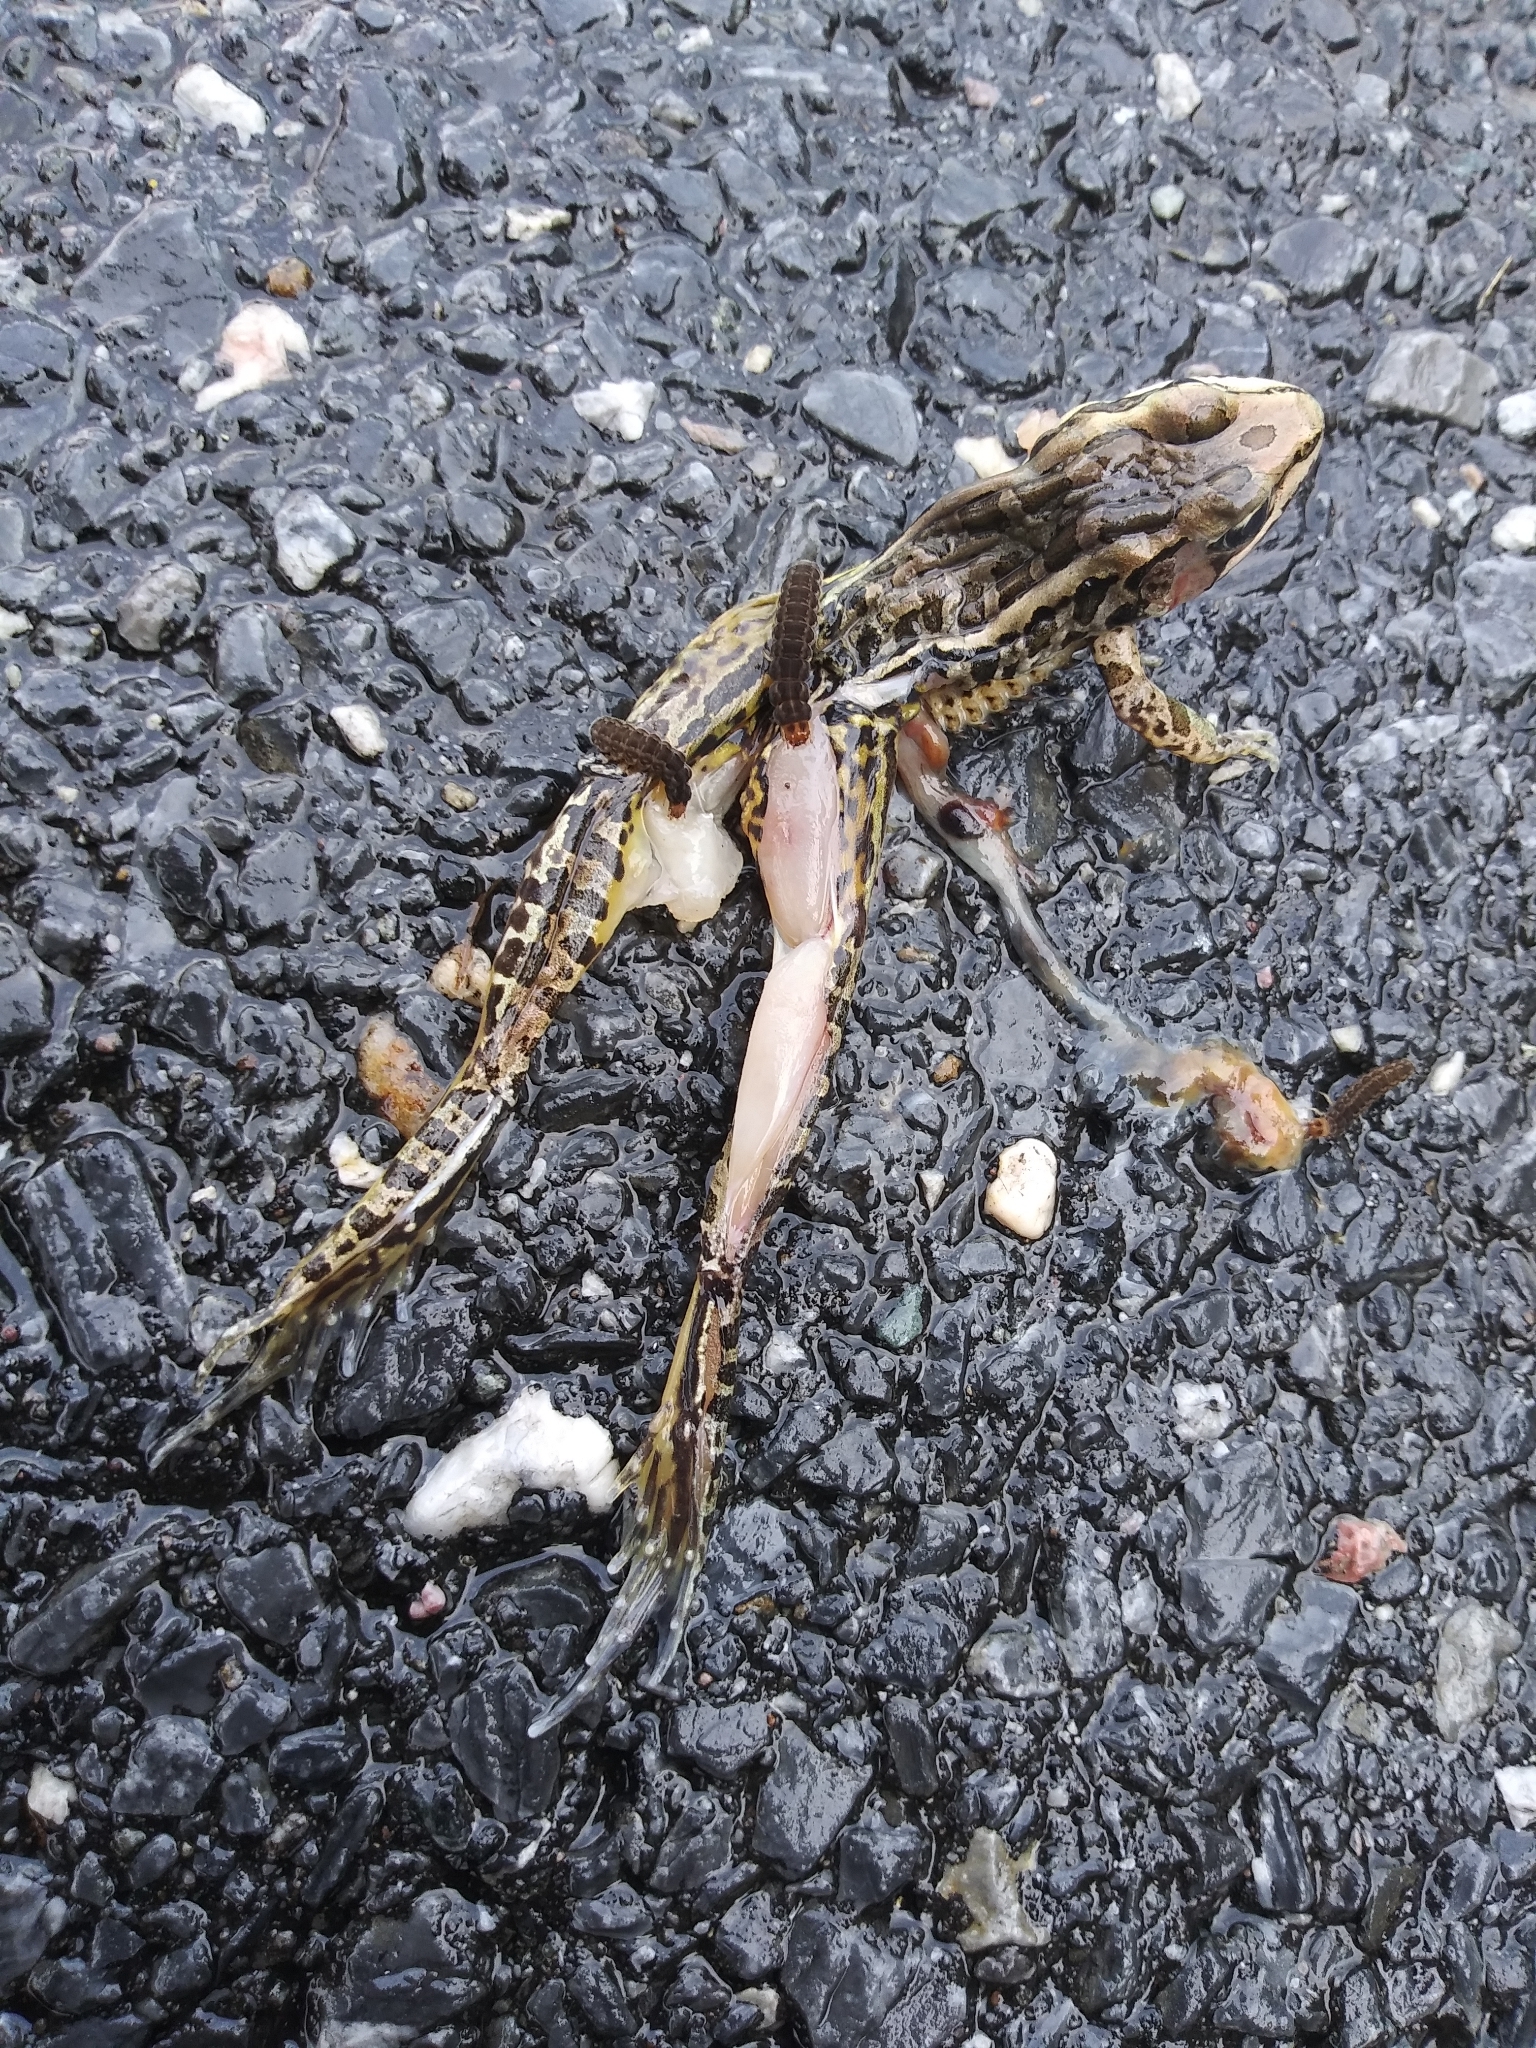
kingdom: Animalia
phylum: Chordata
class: Amphibia
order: Anura
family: Ranidae
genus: Lithobates
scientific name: Lithobates palustris
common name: Pickerel frog
